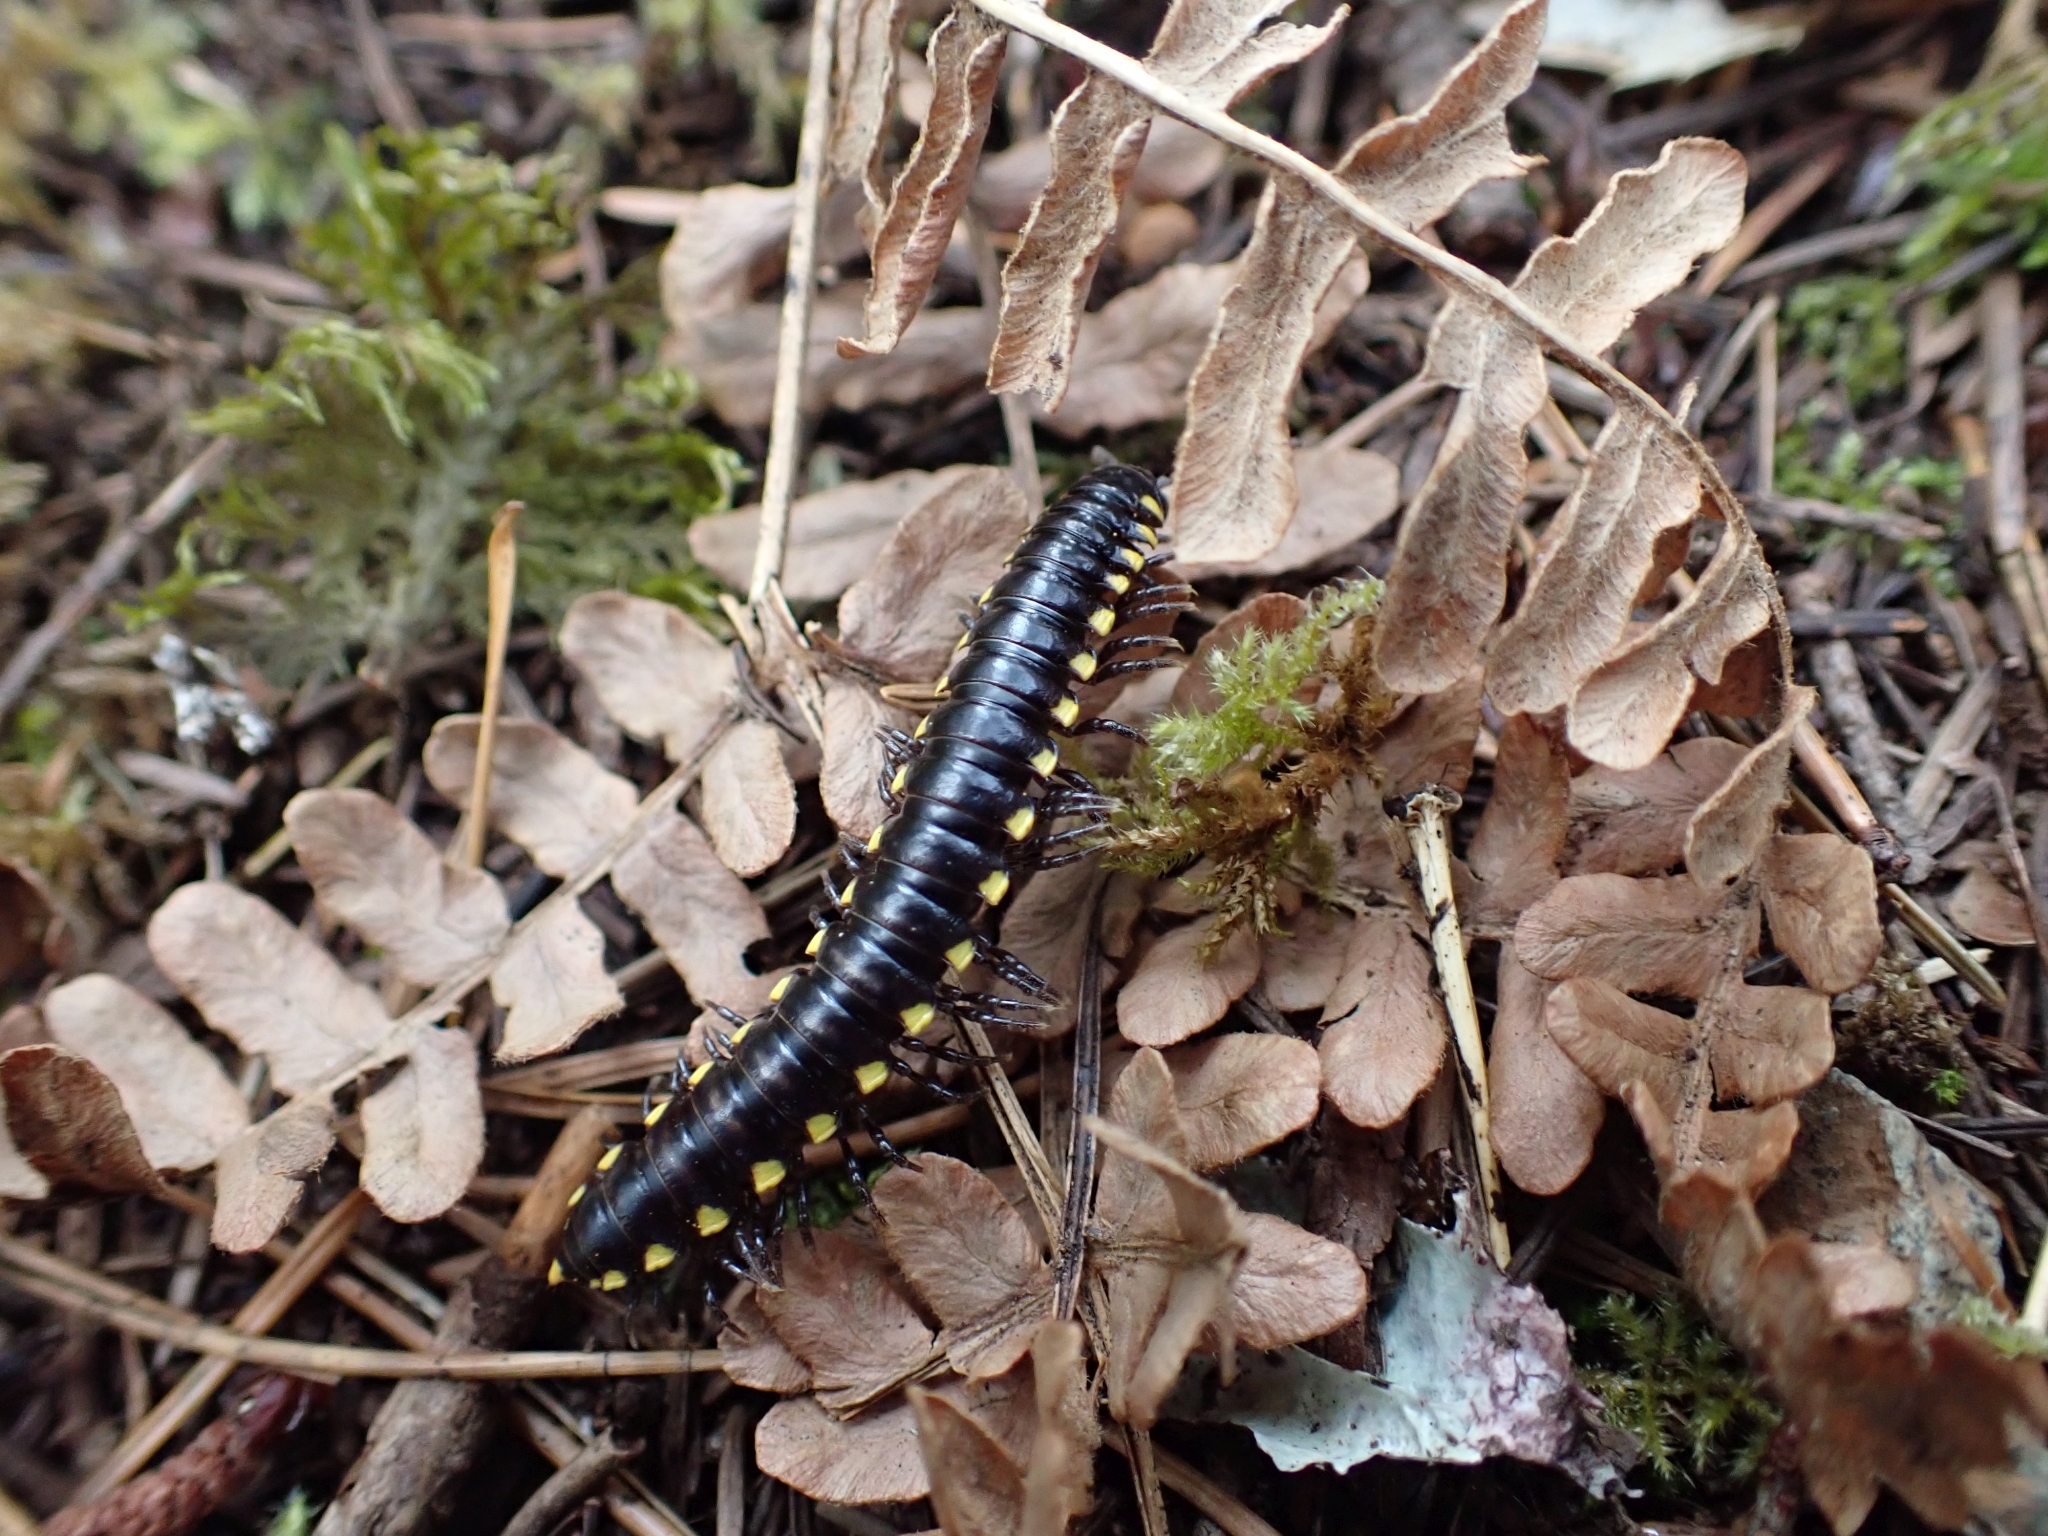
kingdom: Animalia
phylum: Arthropoda
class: Diplopoda
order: Polydesmida
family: Xystodesmidae
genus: Harpaphe
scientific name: Harpaphe haydeniana
